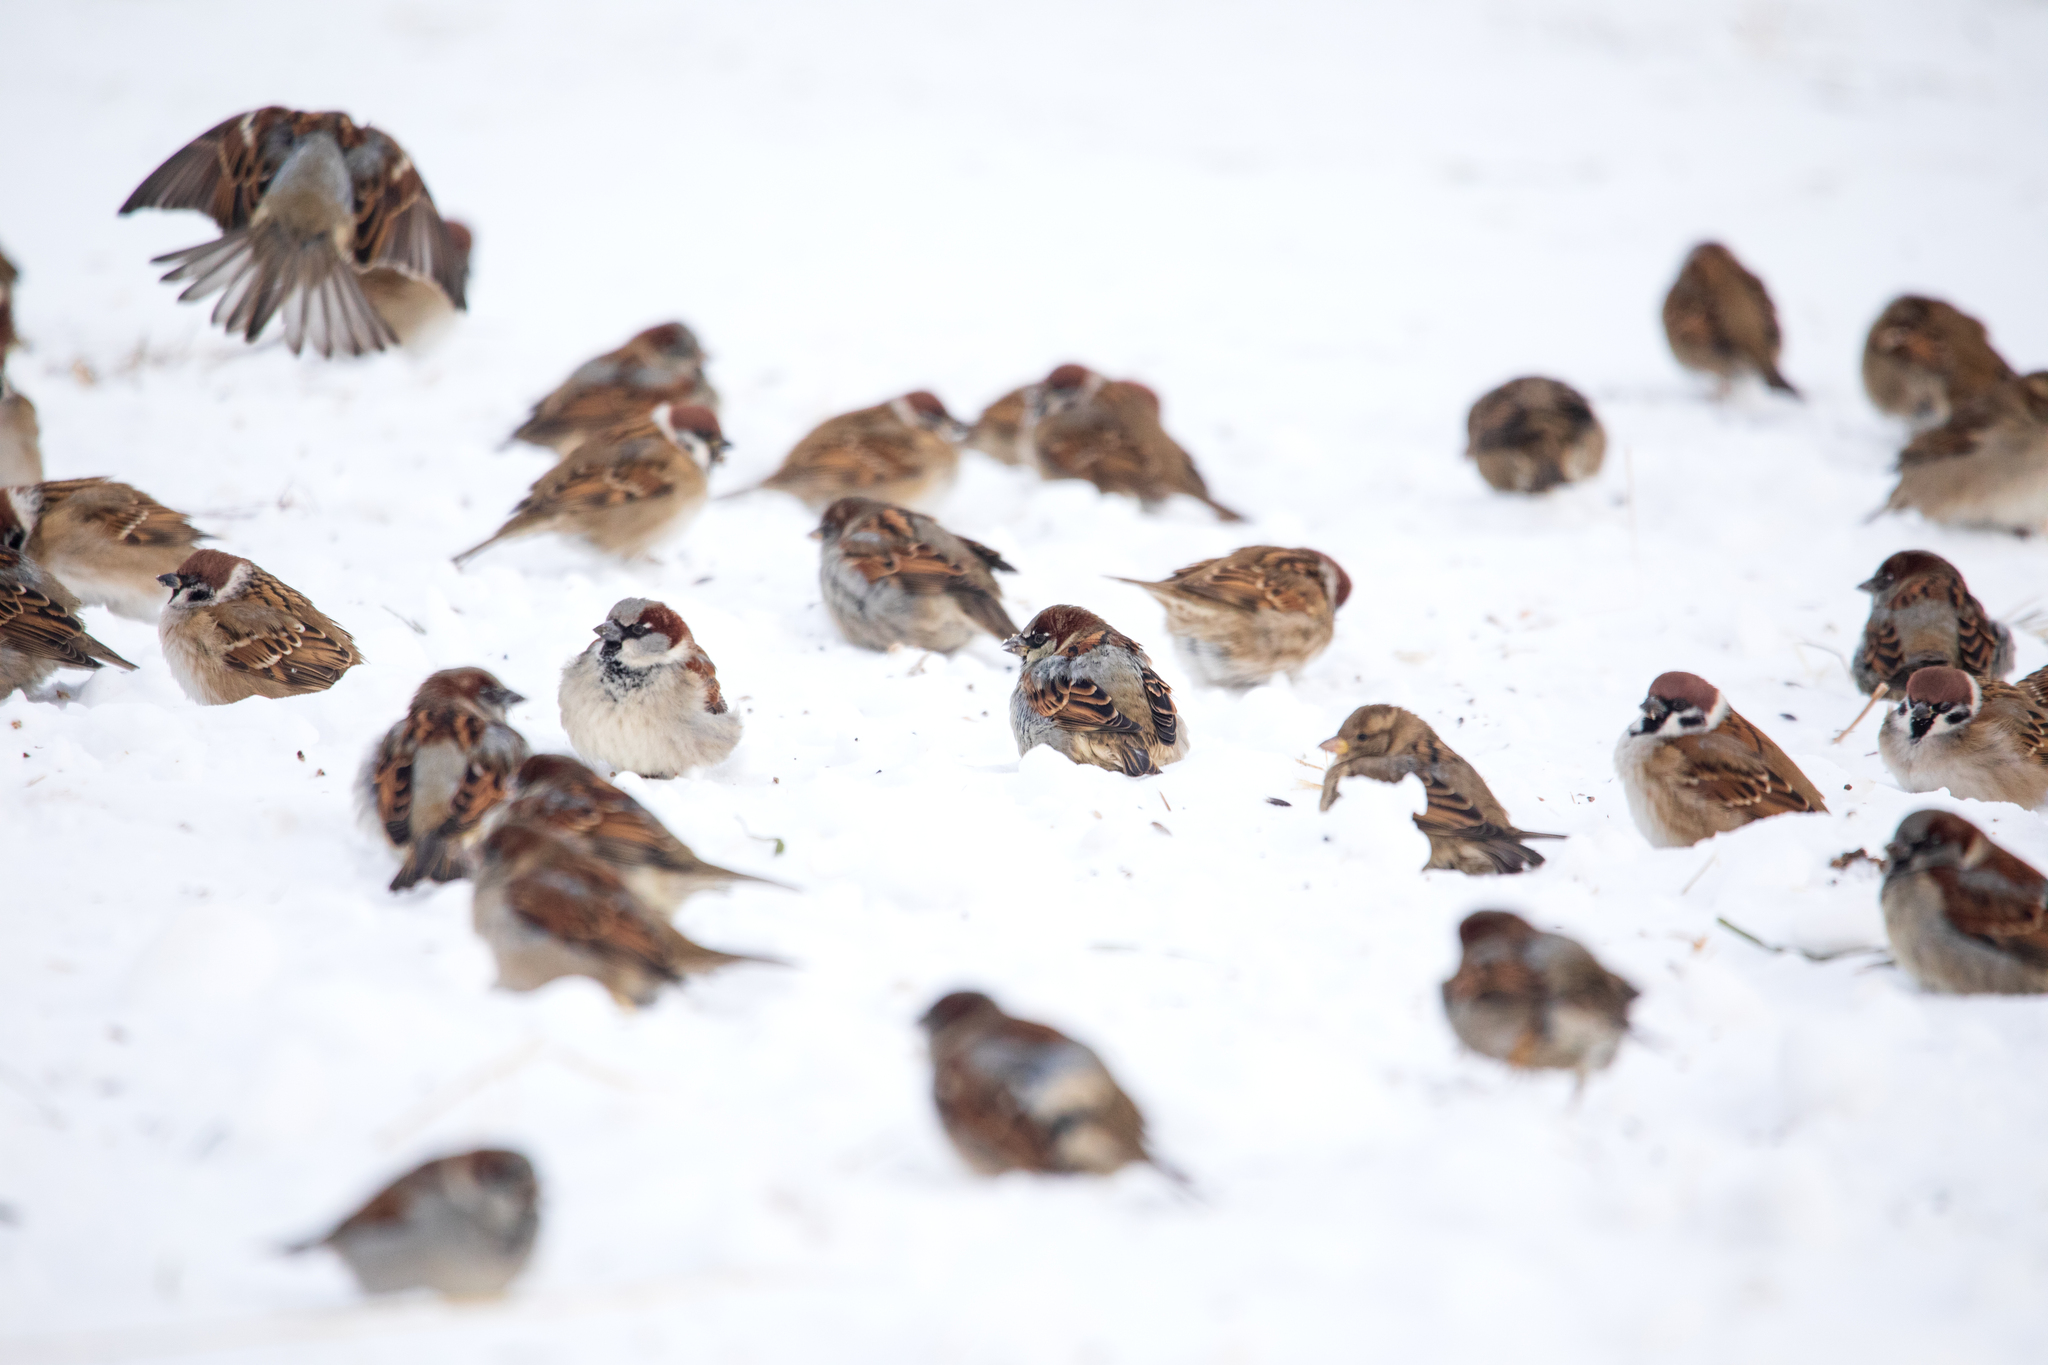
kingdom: Animalia
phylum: Chordata
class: Aves
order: Passeriformes
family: Passeridae
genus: Passer
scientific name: Passer montanus
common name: Eurasian tree sparrow
